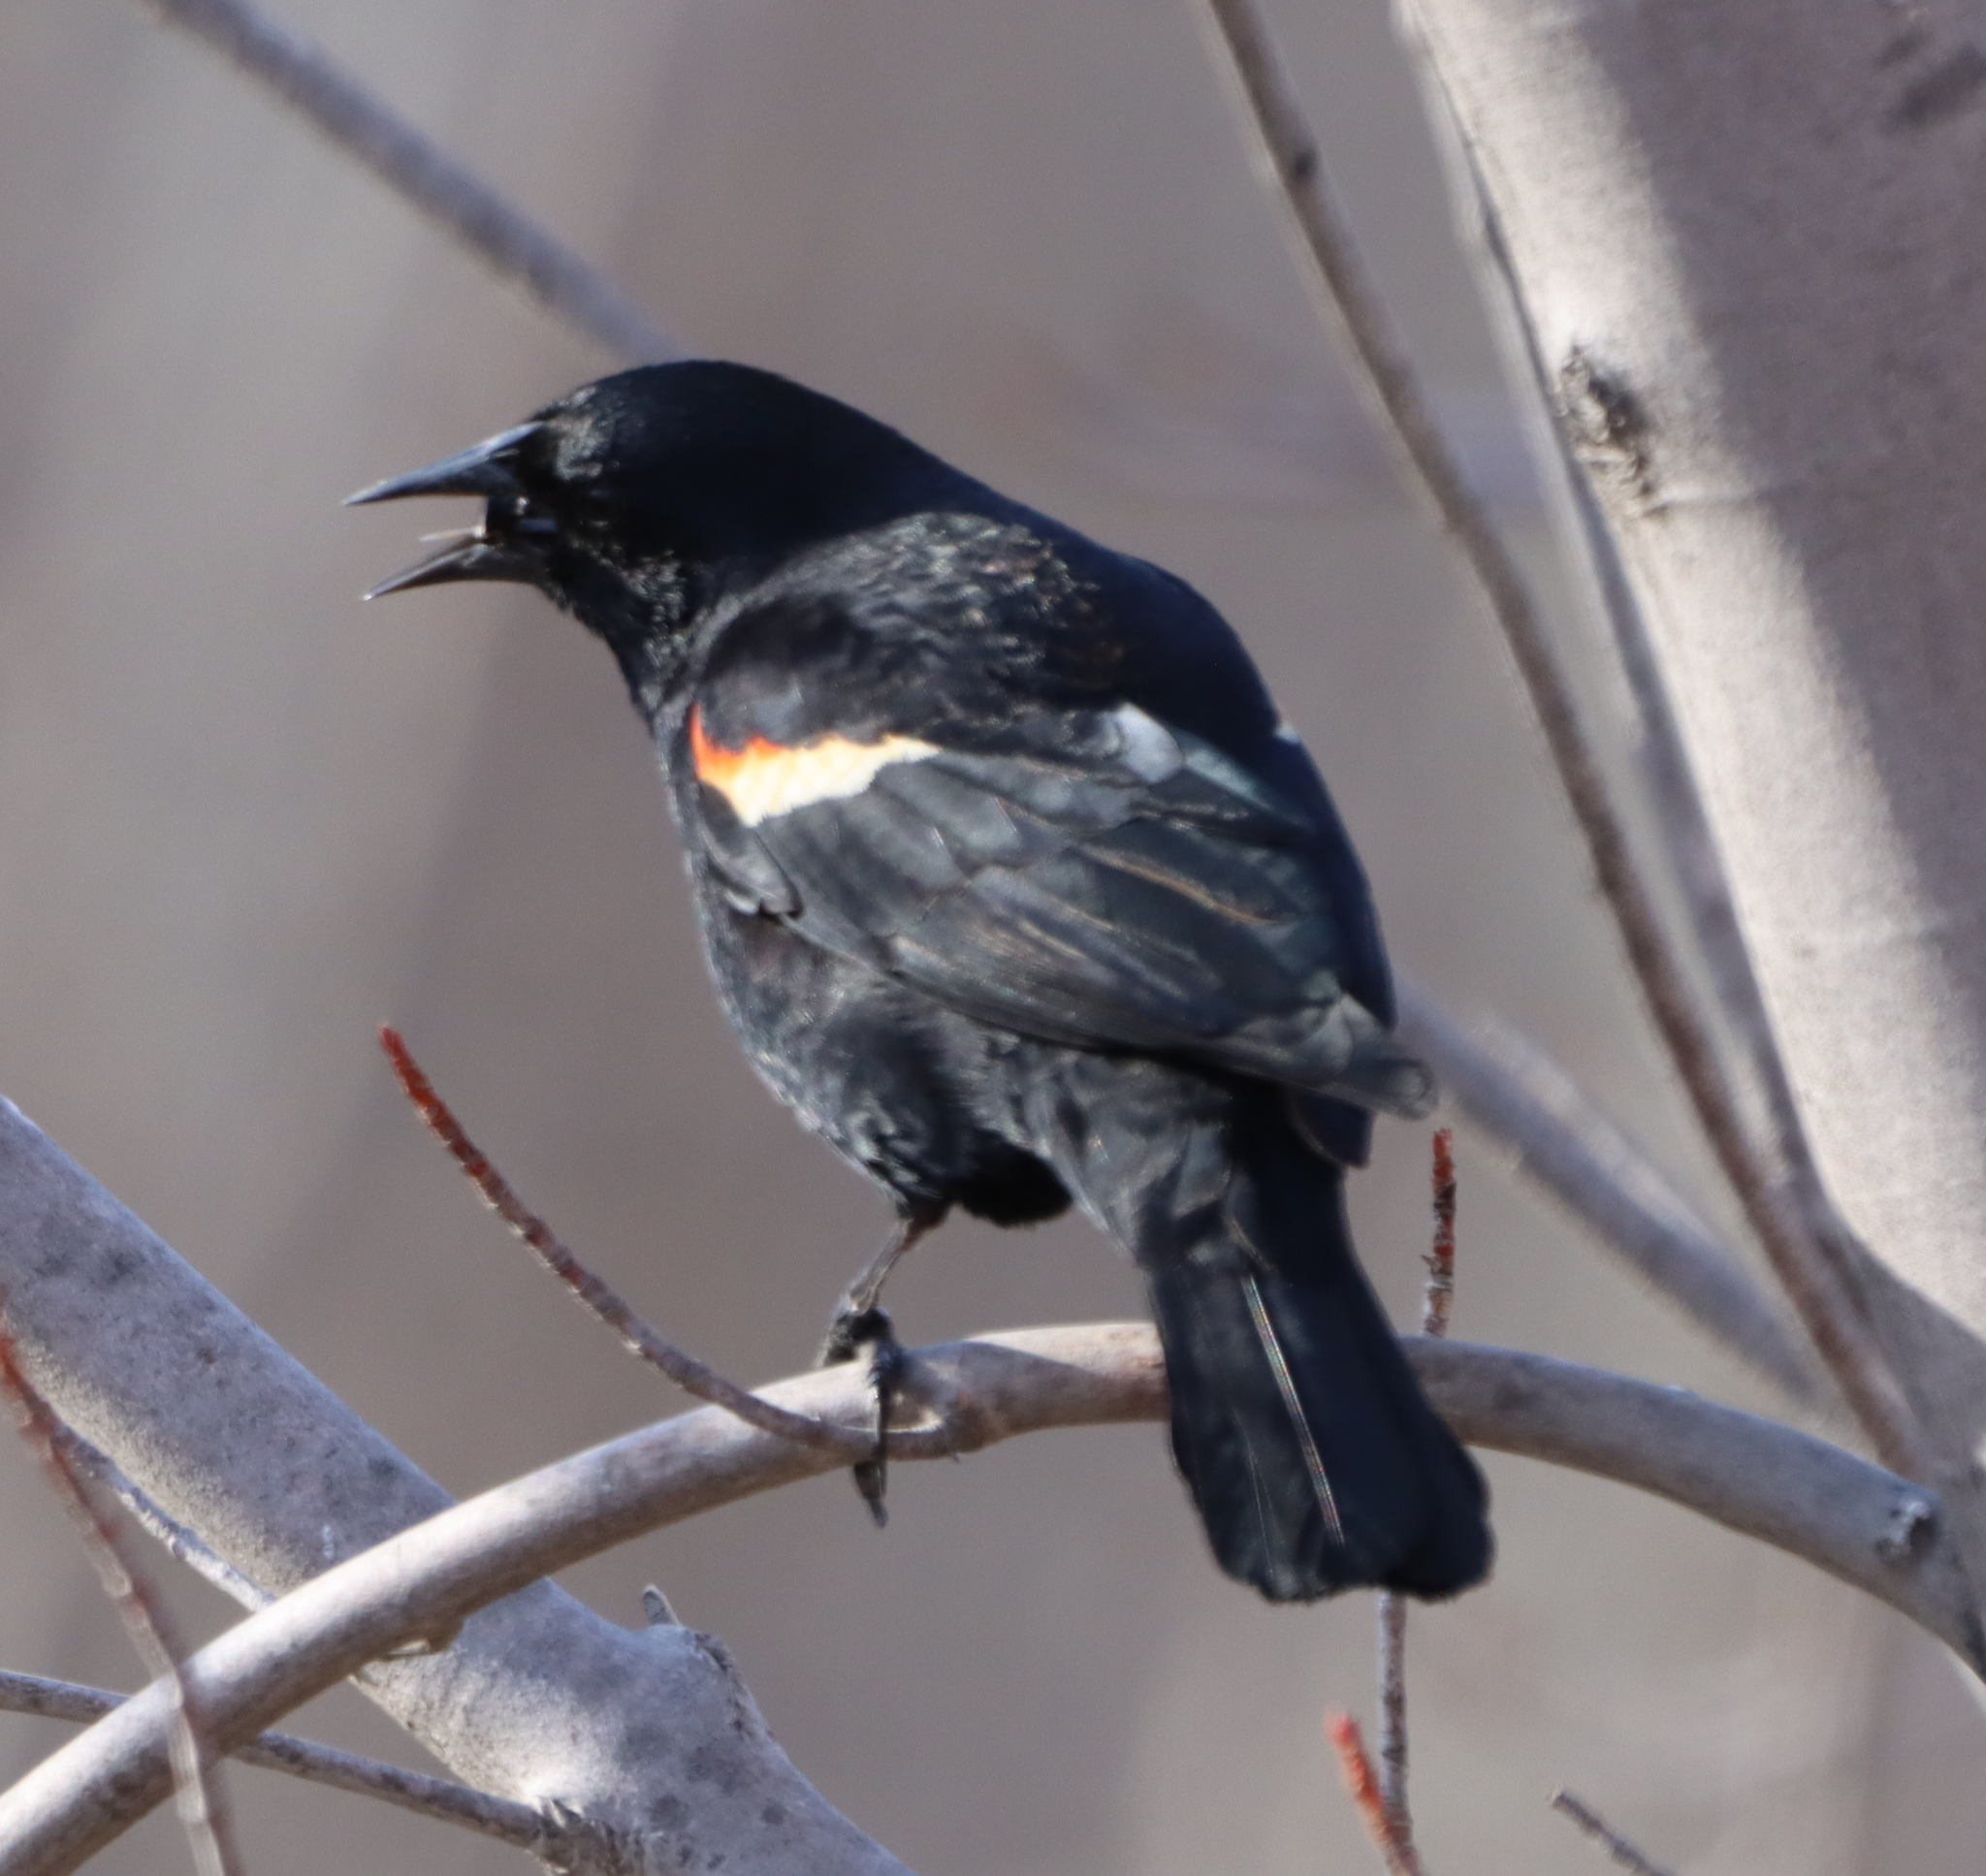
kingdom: Animalia
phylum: Chordata
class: Aves
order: Passeriformes
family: Icteridae
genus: Agelaius
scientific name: Agelaius phoeniceus
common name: Red-winged blackbird
